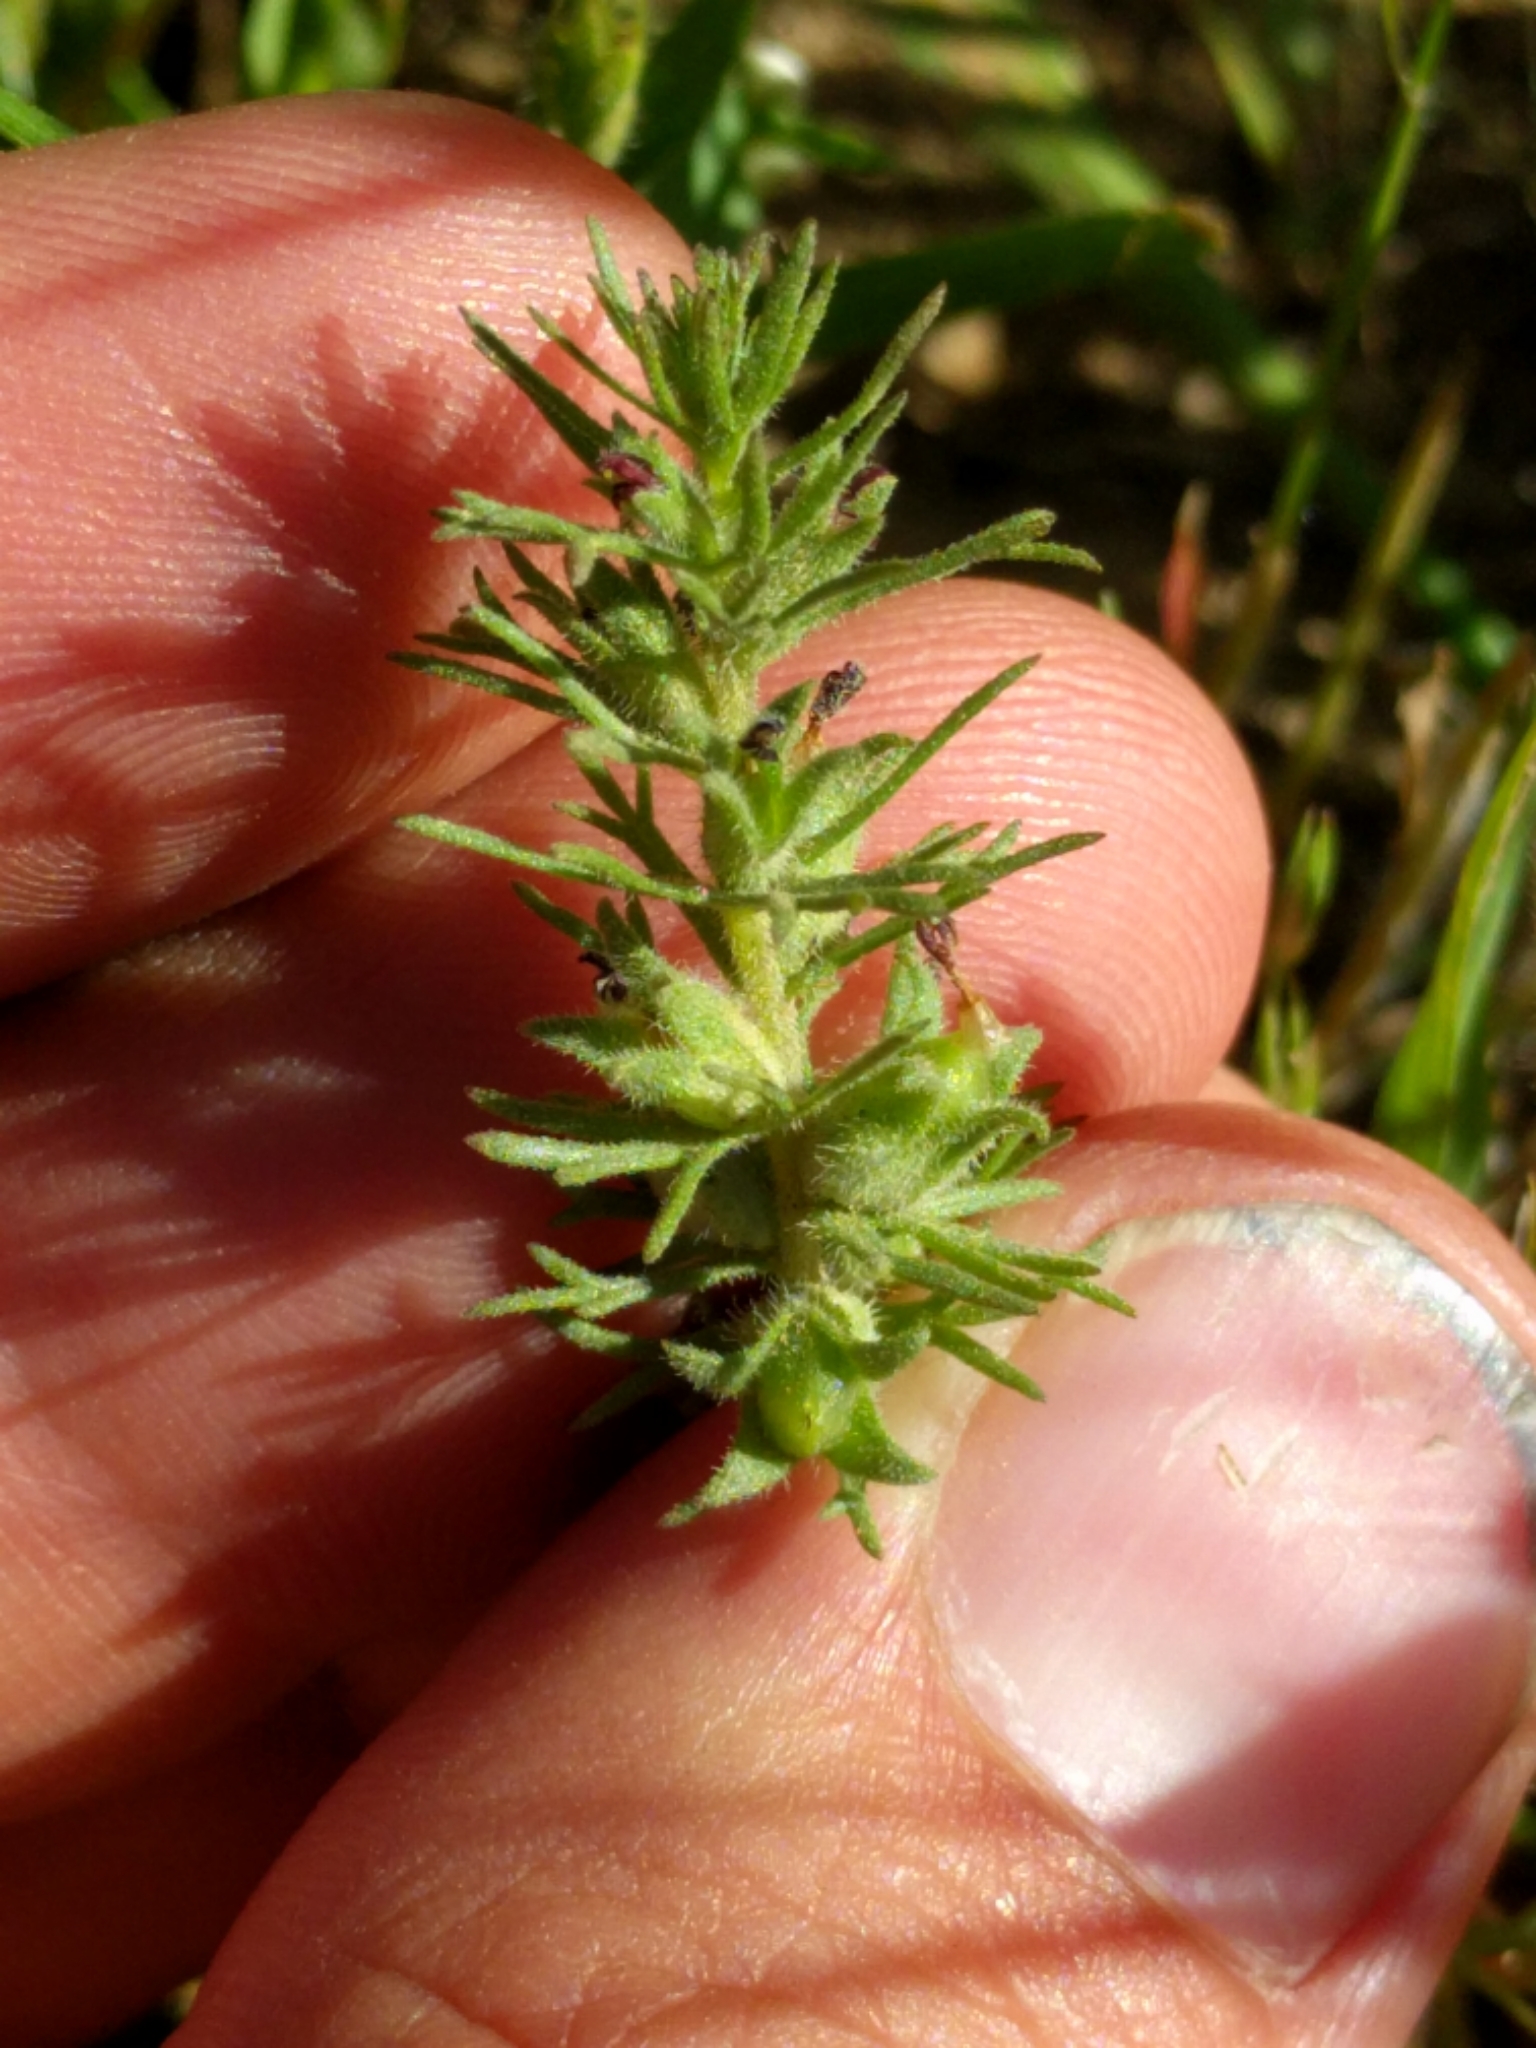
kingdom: Plantae
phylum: Tracheophyta
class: Magnoliopsida
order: Lamiales
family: Orobanchaceae
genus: Triphysaria
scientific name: Triphysaria pusilla
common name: Dwarf false owl-clover
